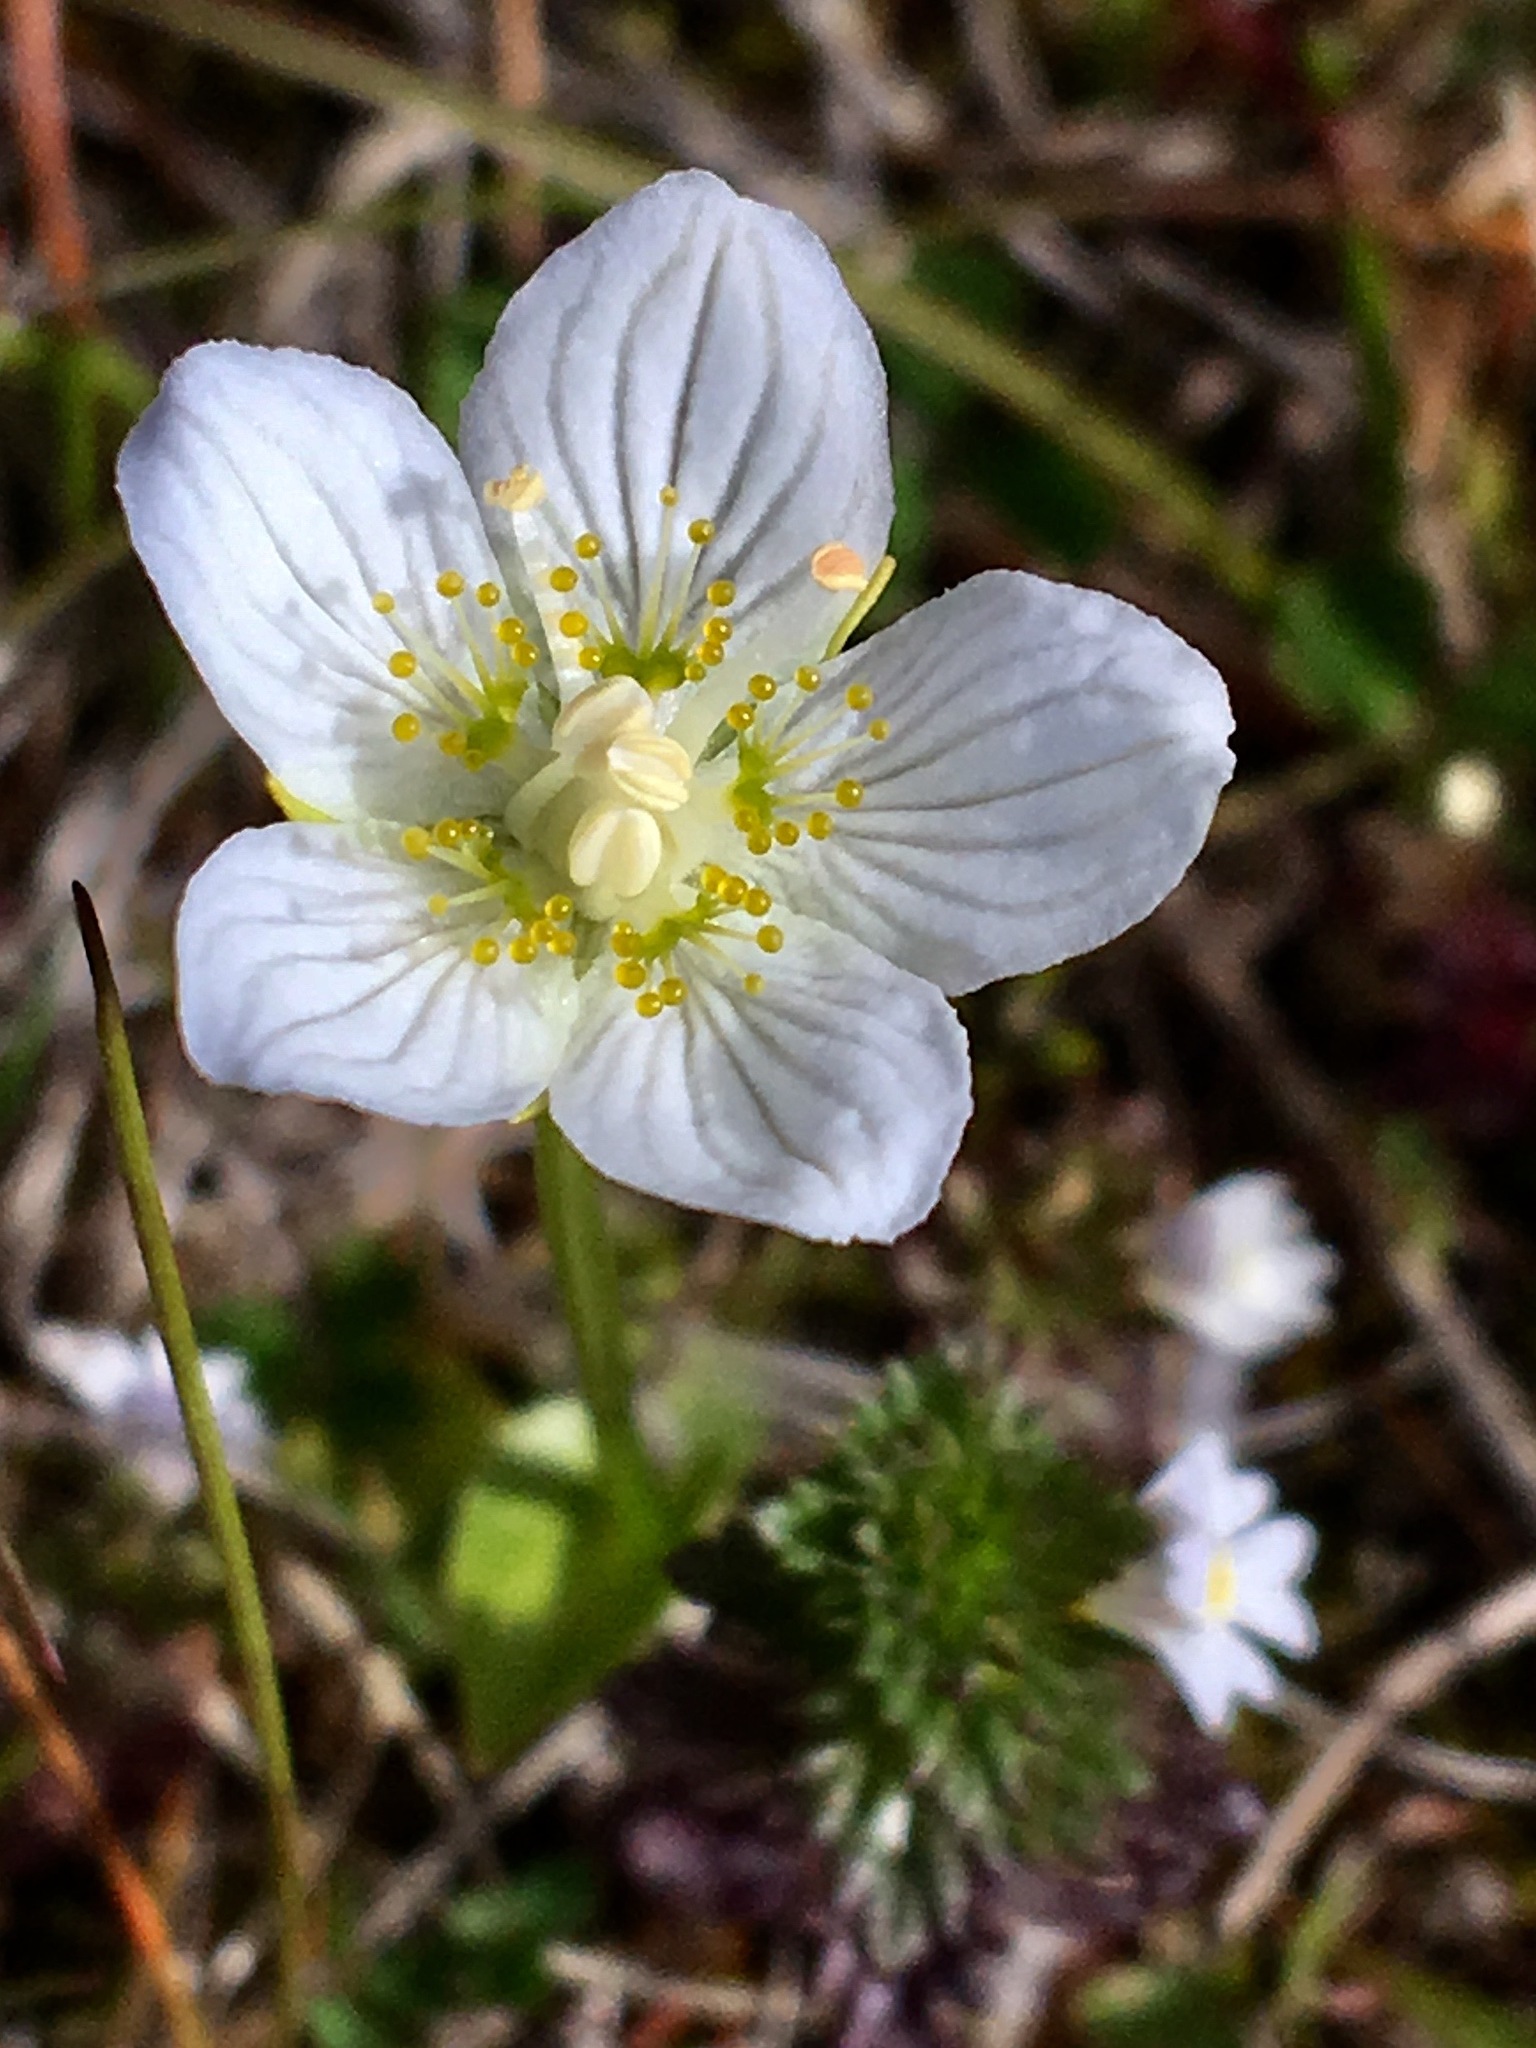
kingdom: Plantae
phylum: Tracheophyta
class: Magnoliopsida
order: Celastrales
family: Parnassiaceae
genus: Parnassia
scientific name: Parnassia palustris
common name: Grass-of-parnassus
